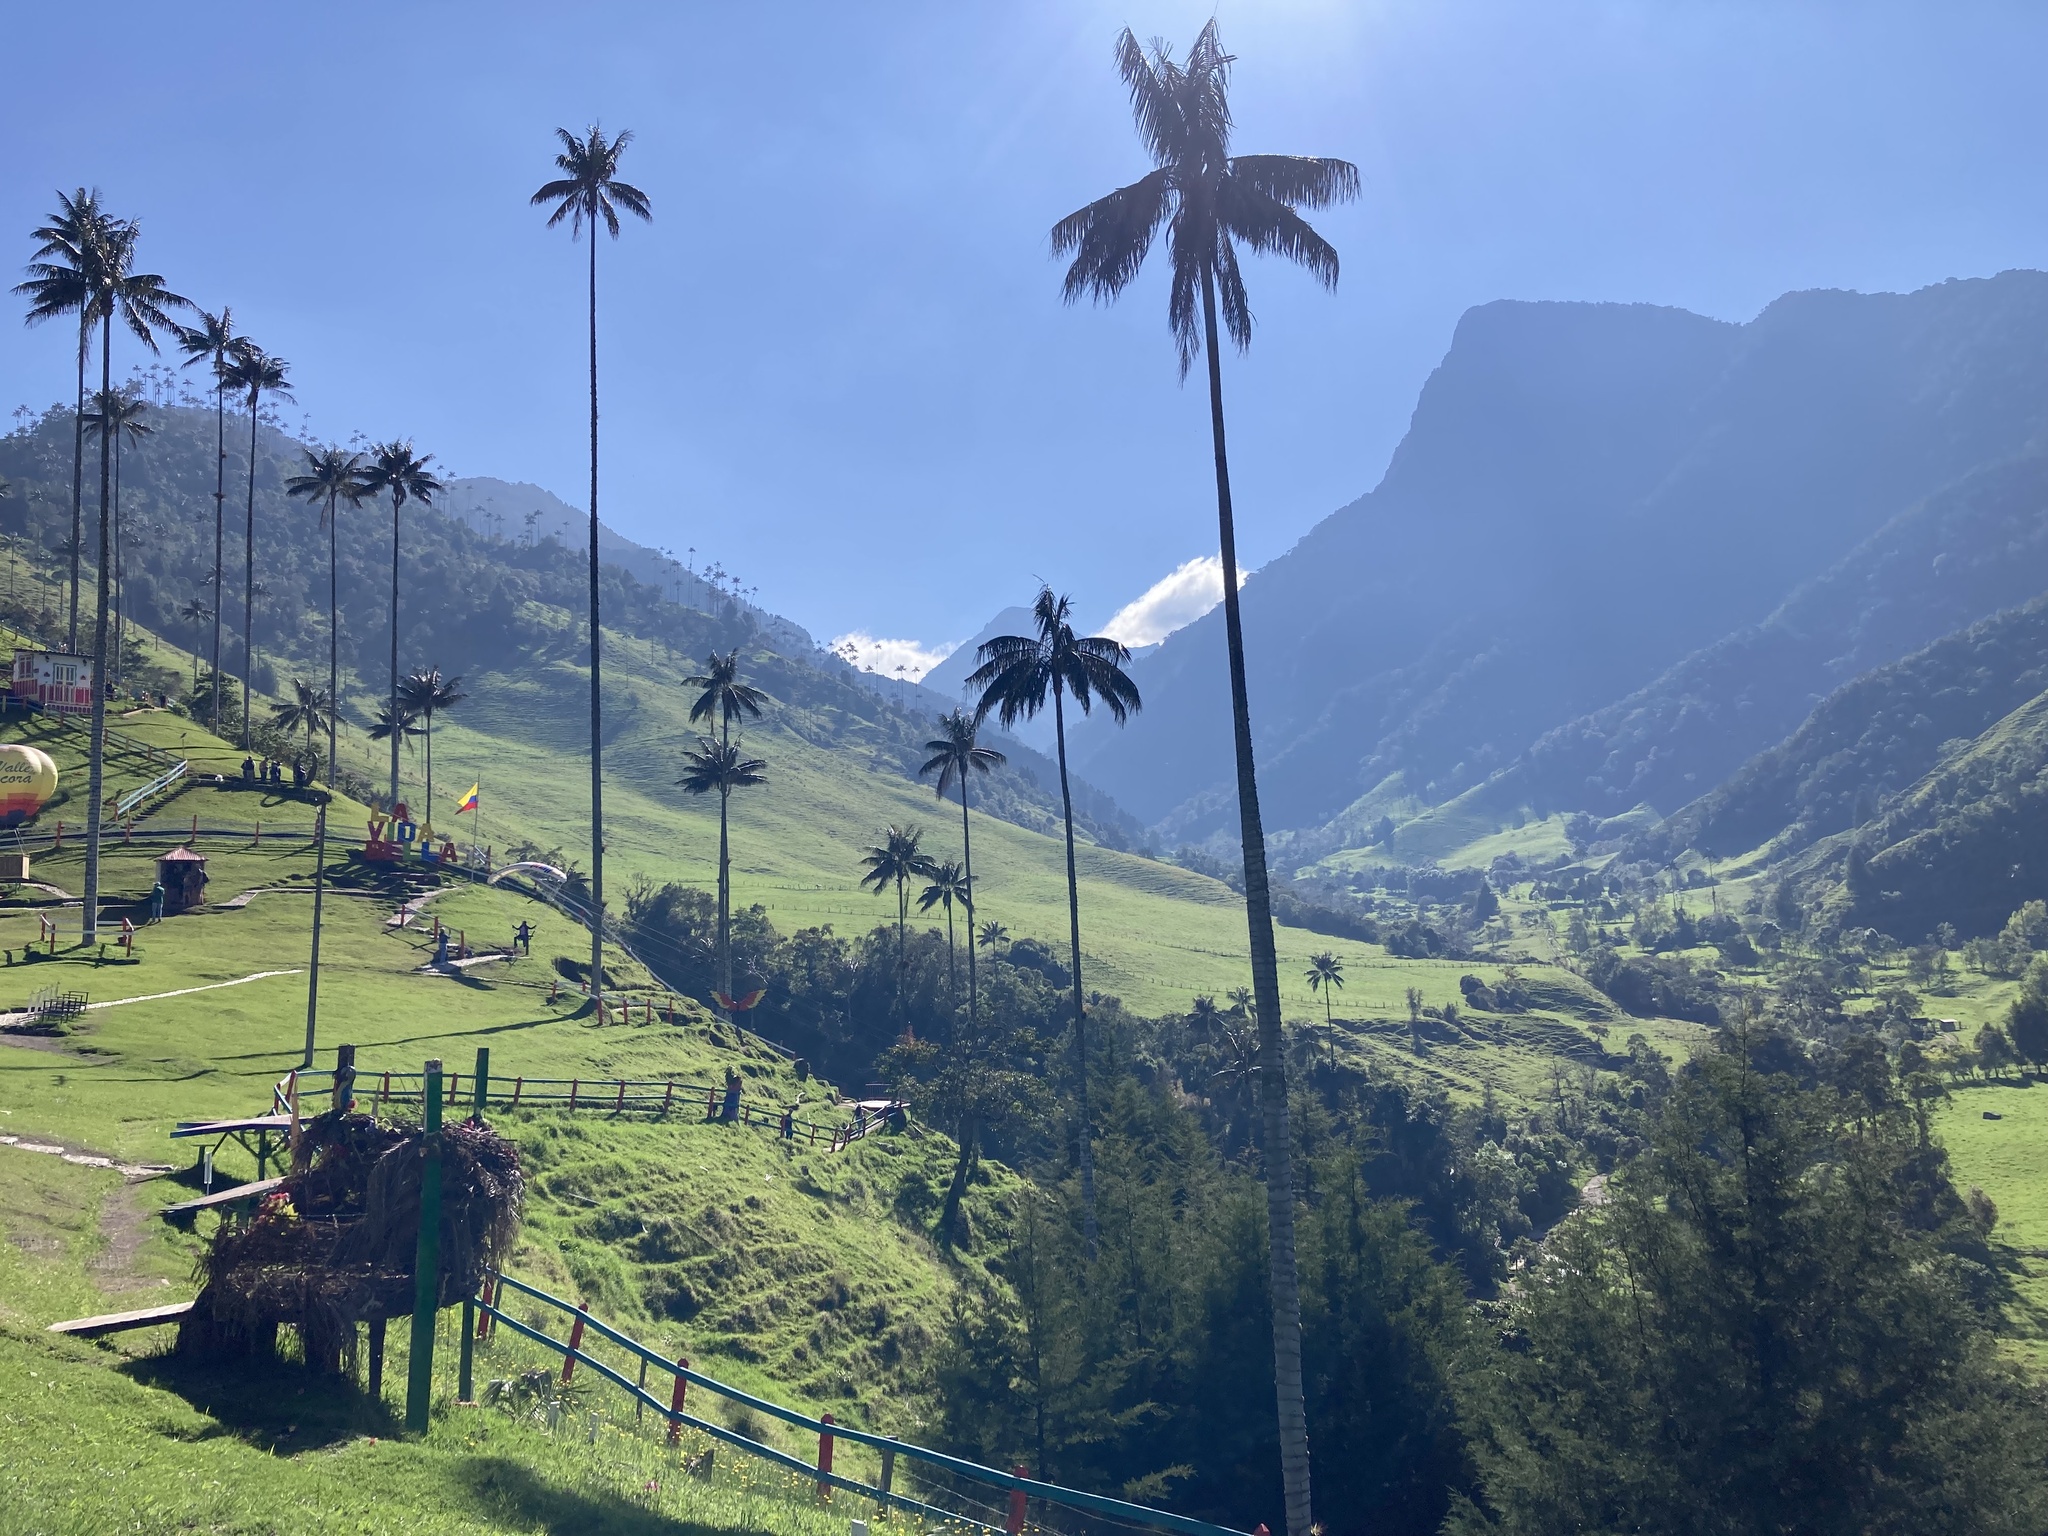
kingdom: Plantae
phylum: Tracheophyta
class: Liliopsida
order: Arecales
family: Arecaceae
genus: Ceroxylon
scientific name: Ceroxylon quindiuense
